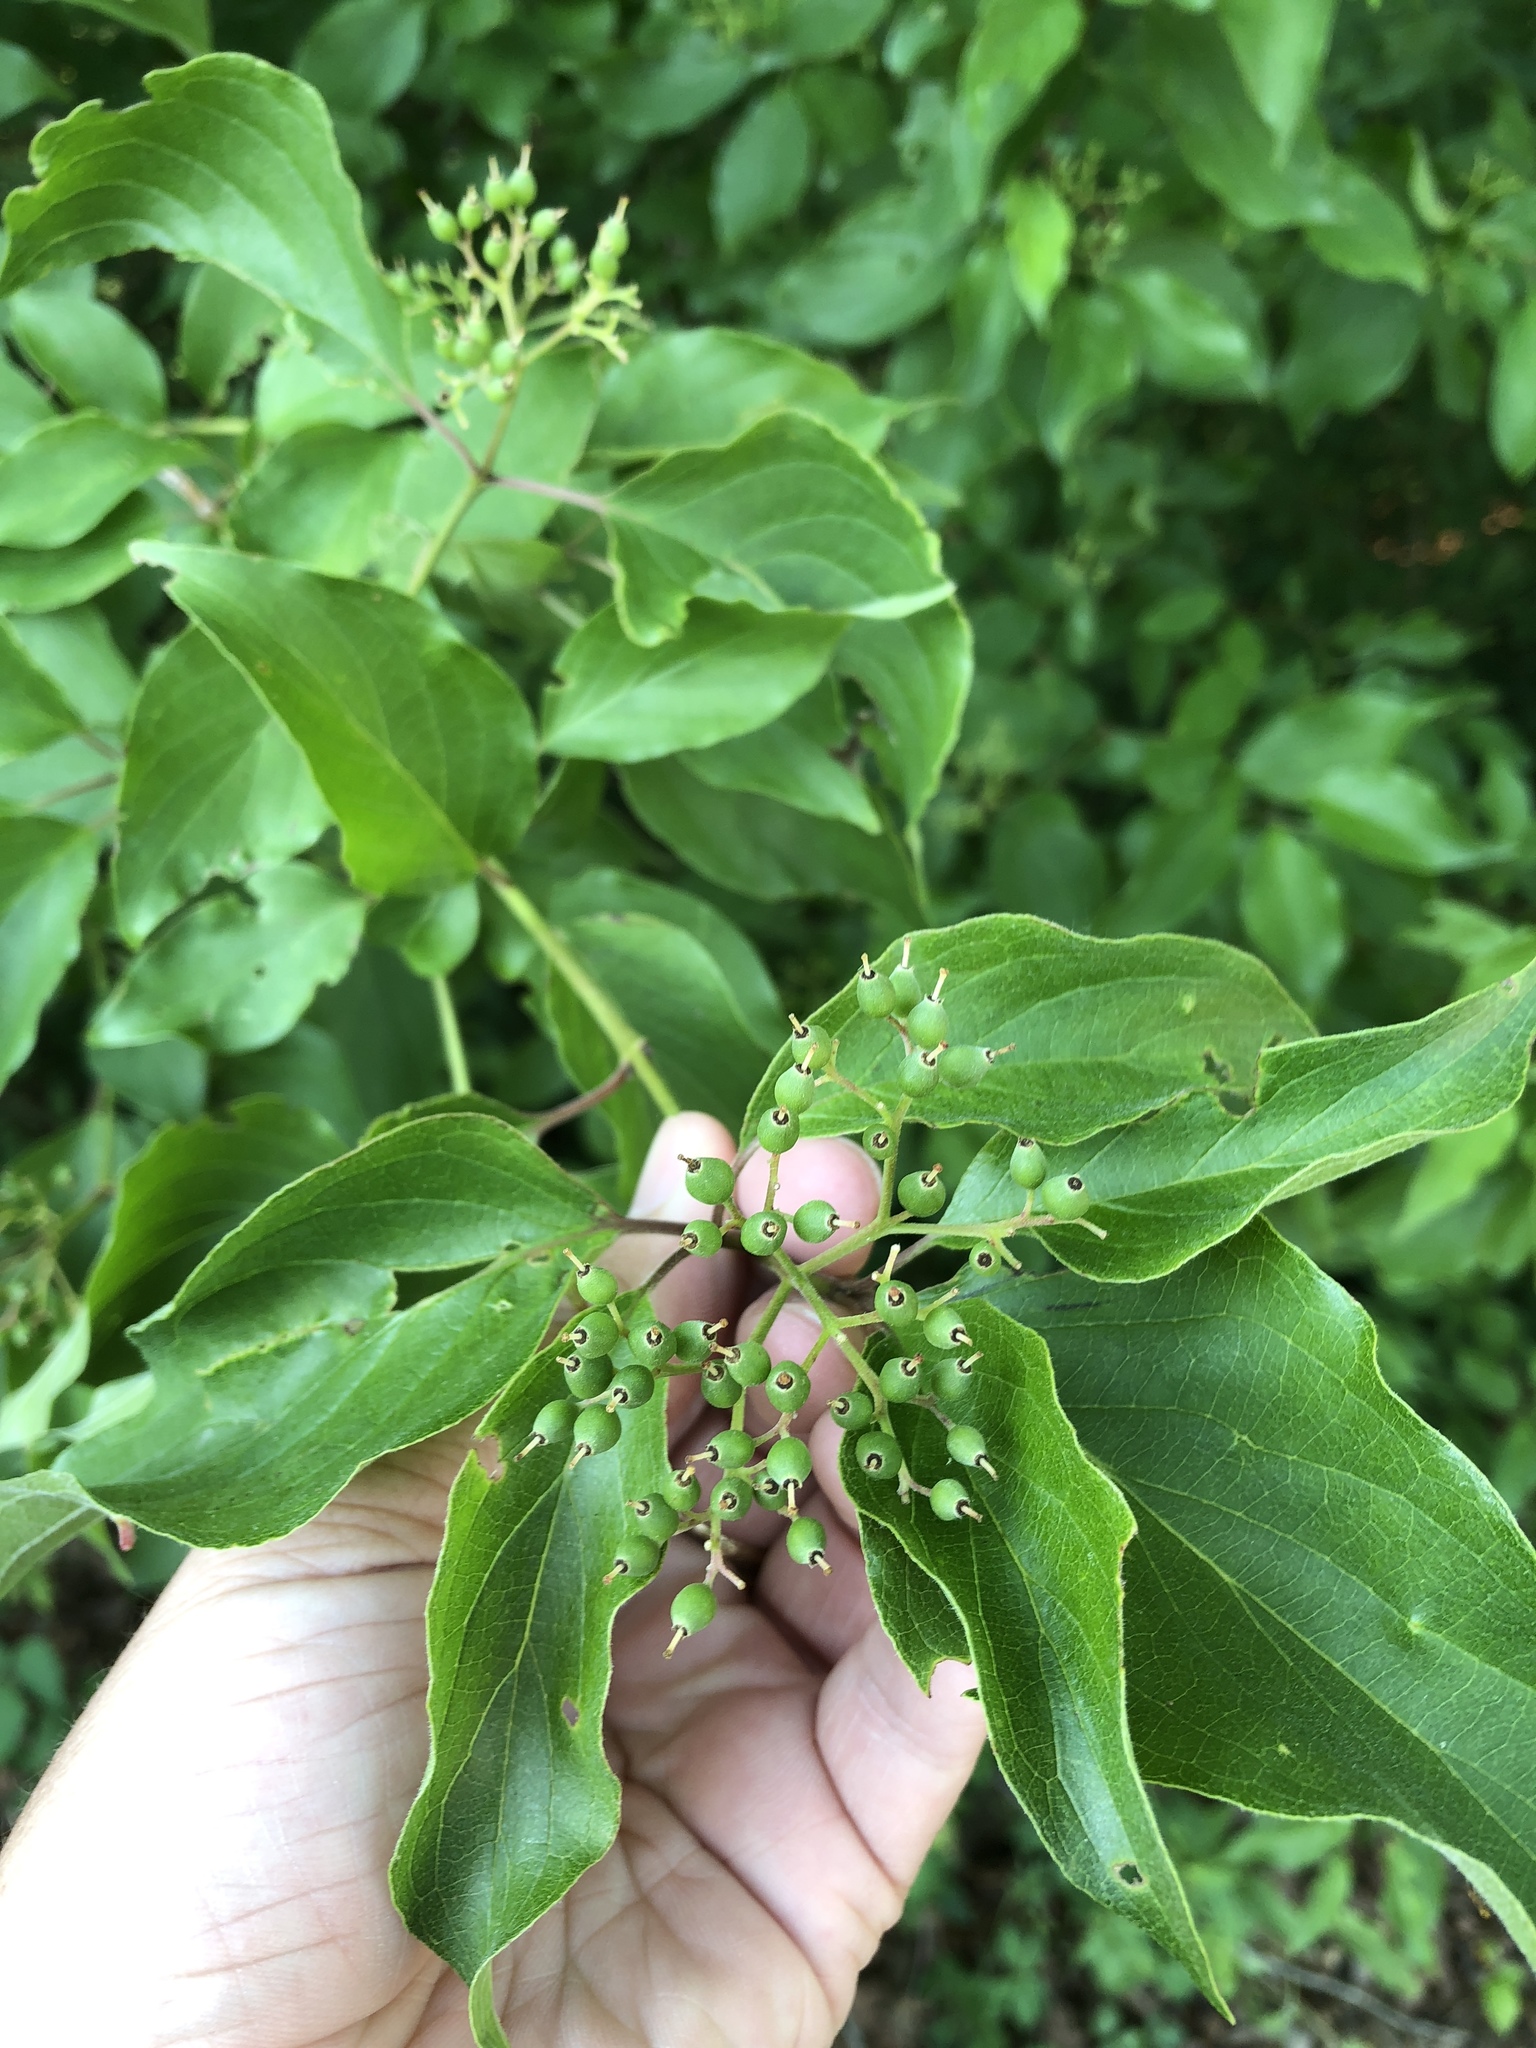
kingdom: Plantae
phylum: Tracheophyta
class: Magnoliopsida
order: Cornales
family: Cornaceae
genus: Cornus
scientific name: Cornus drummondii
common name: Rough-leaf dogwood
